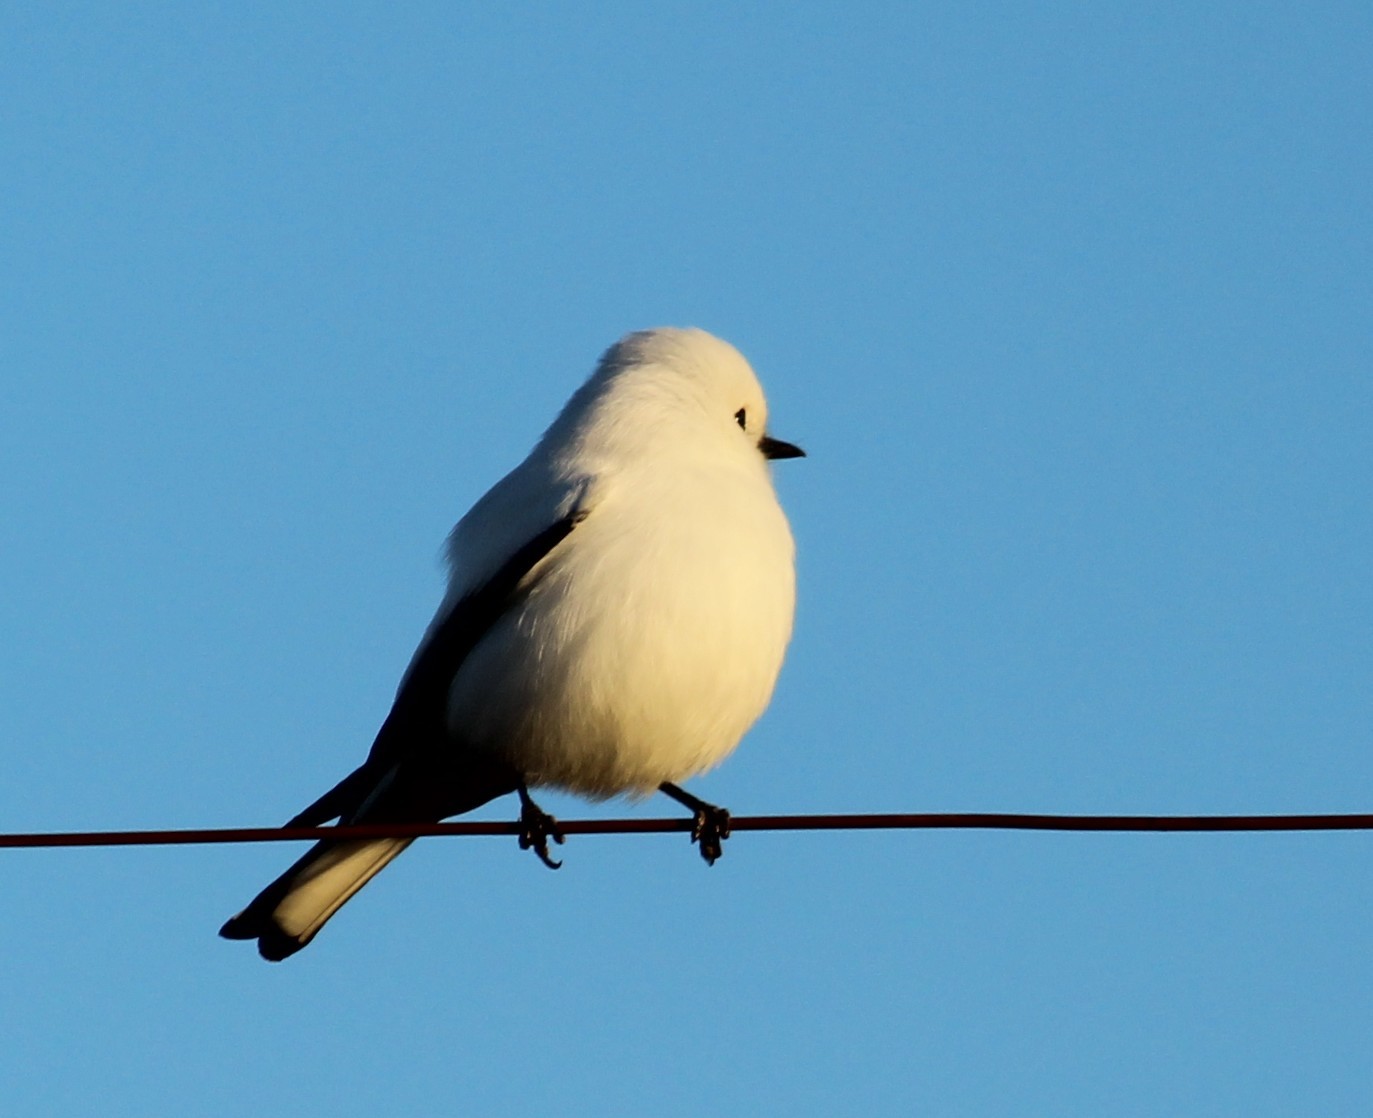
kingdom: Animalia
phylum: Chordata
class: Aves
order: Passeriformes
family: Tyrannidae
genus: Xolmis
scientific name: Xolmis irupero
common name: White monjita
